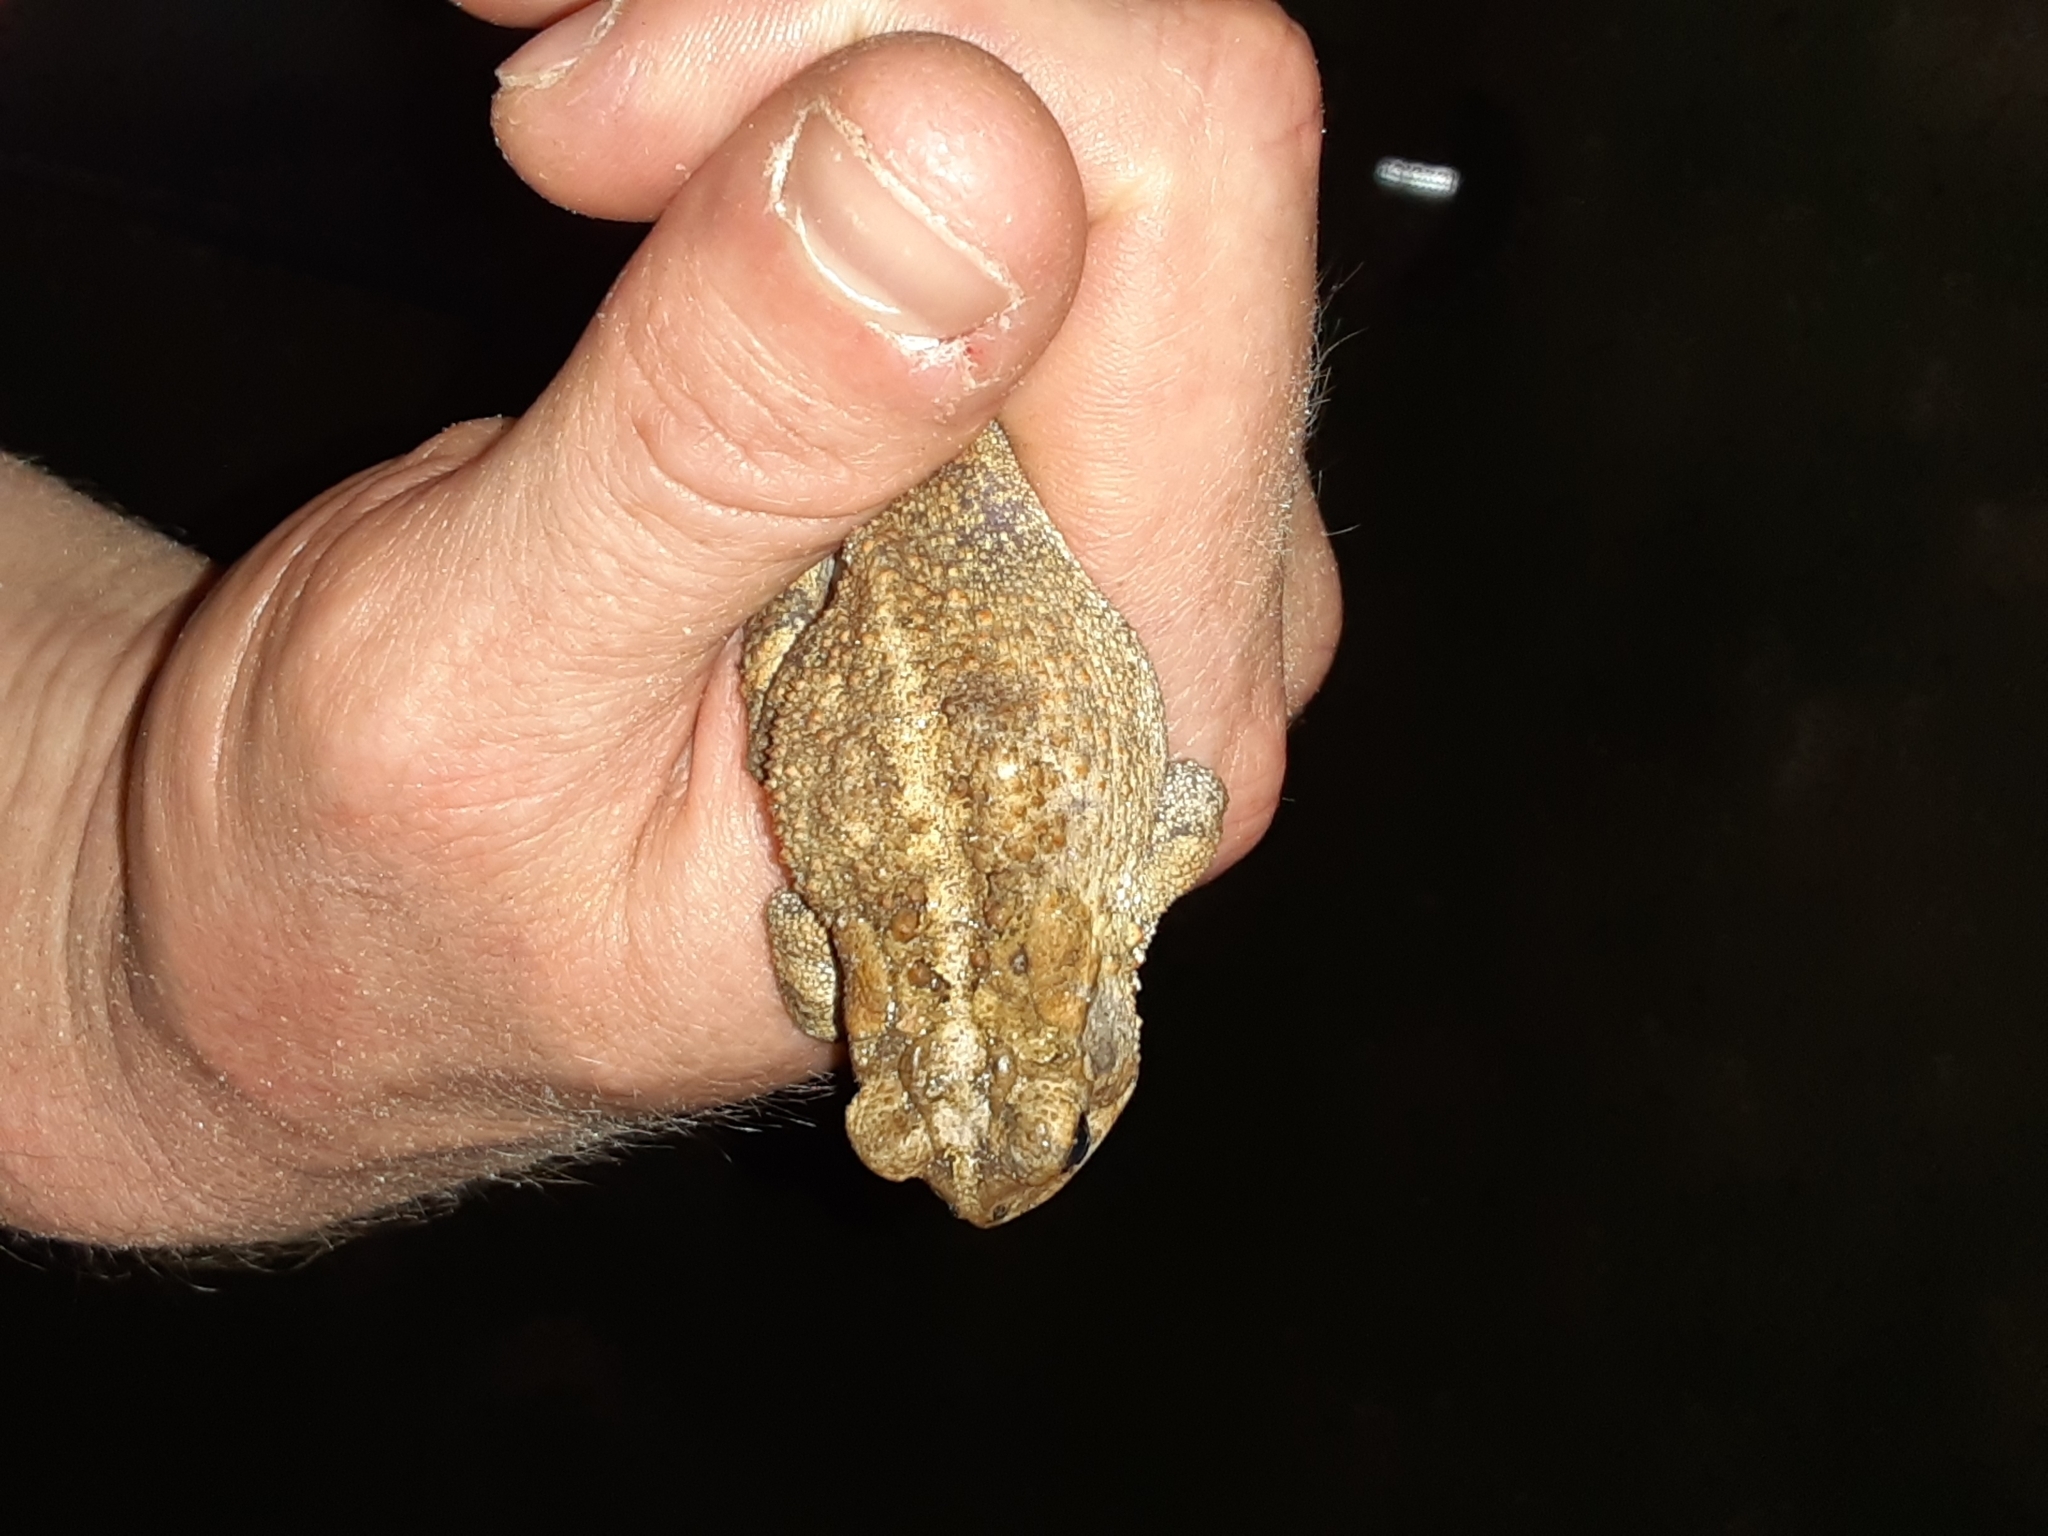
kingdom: Animalia
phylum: Chordata
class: Amphibia
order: Anura
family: Bufonidae
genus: Anaxyrus
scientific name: Anaxyrus terrestris
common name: Southern toad
